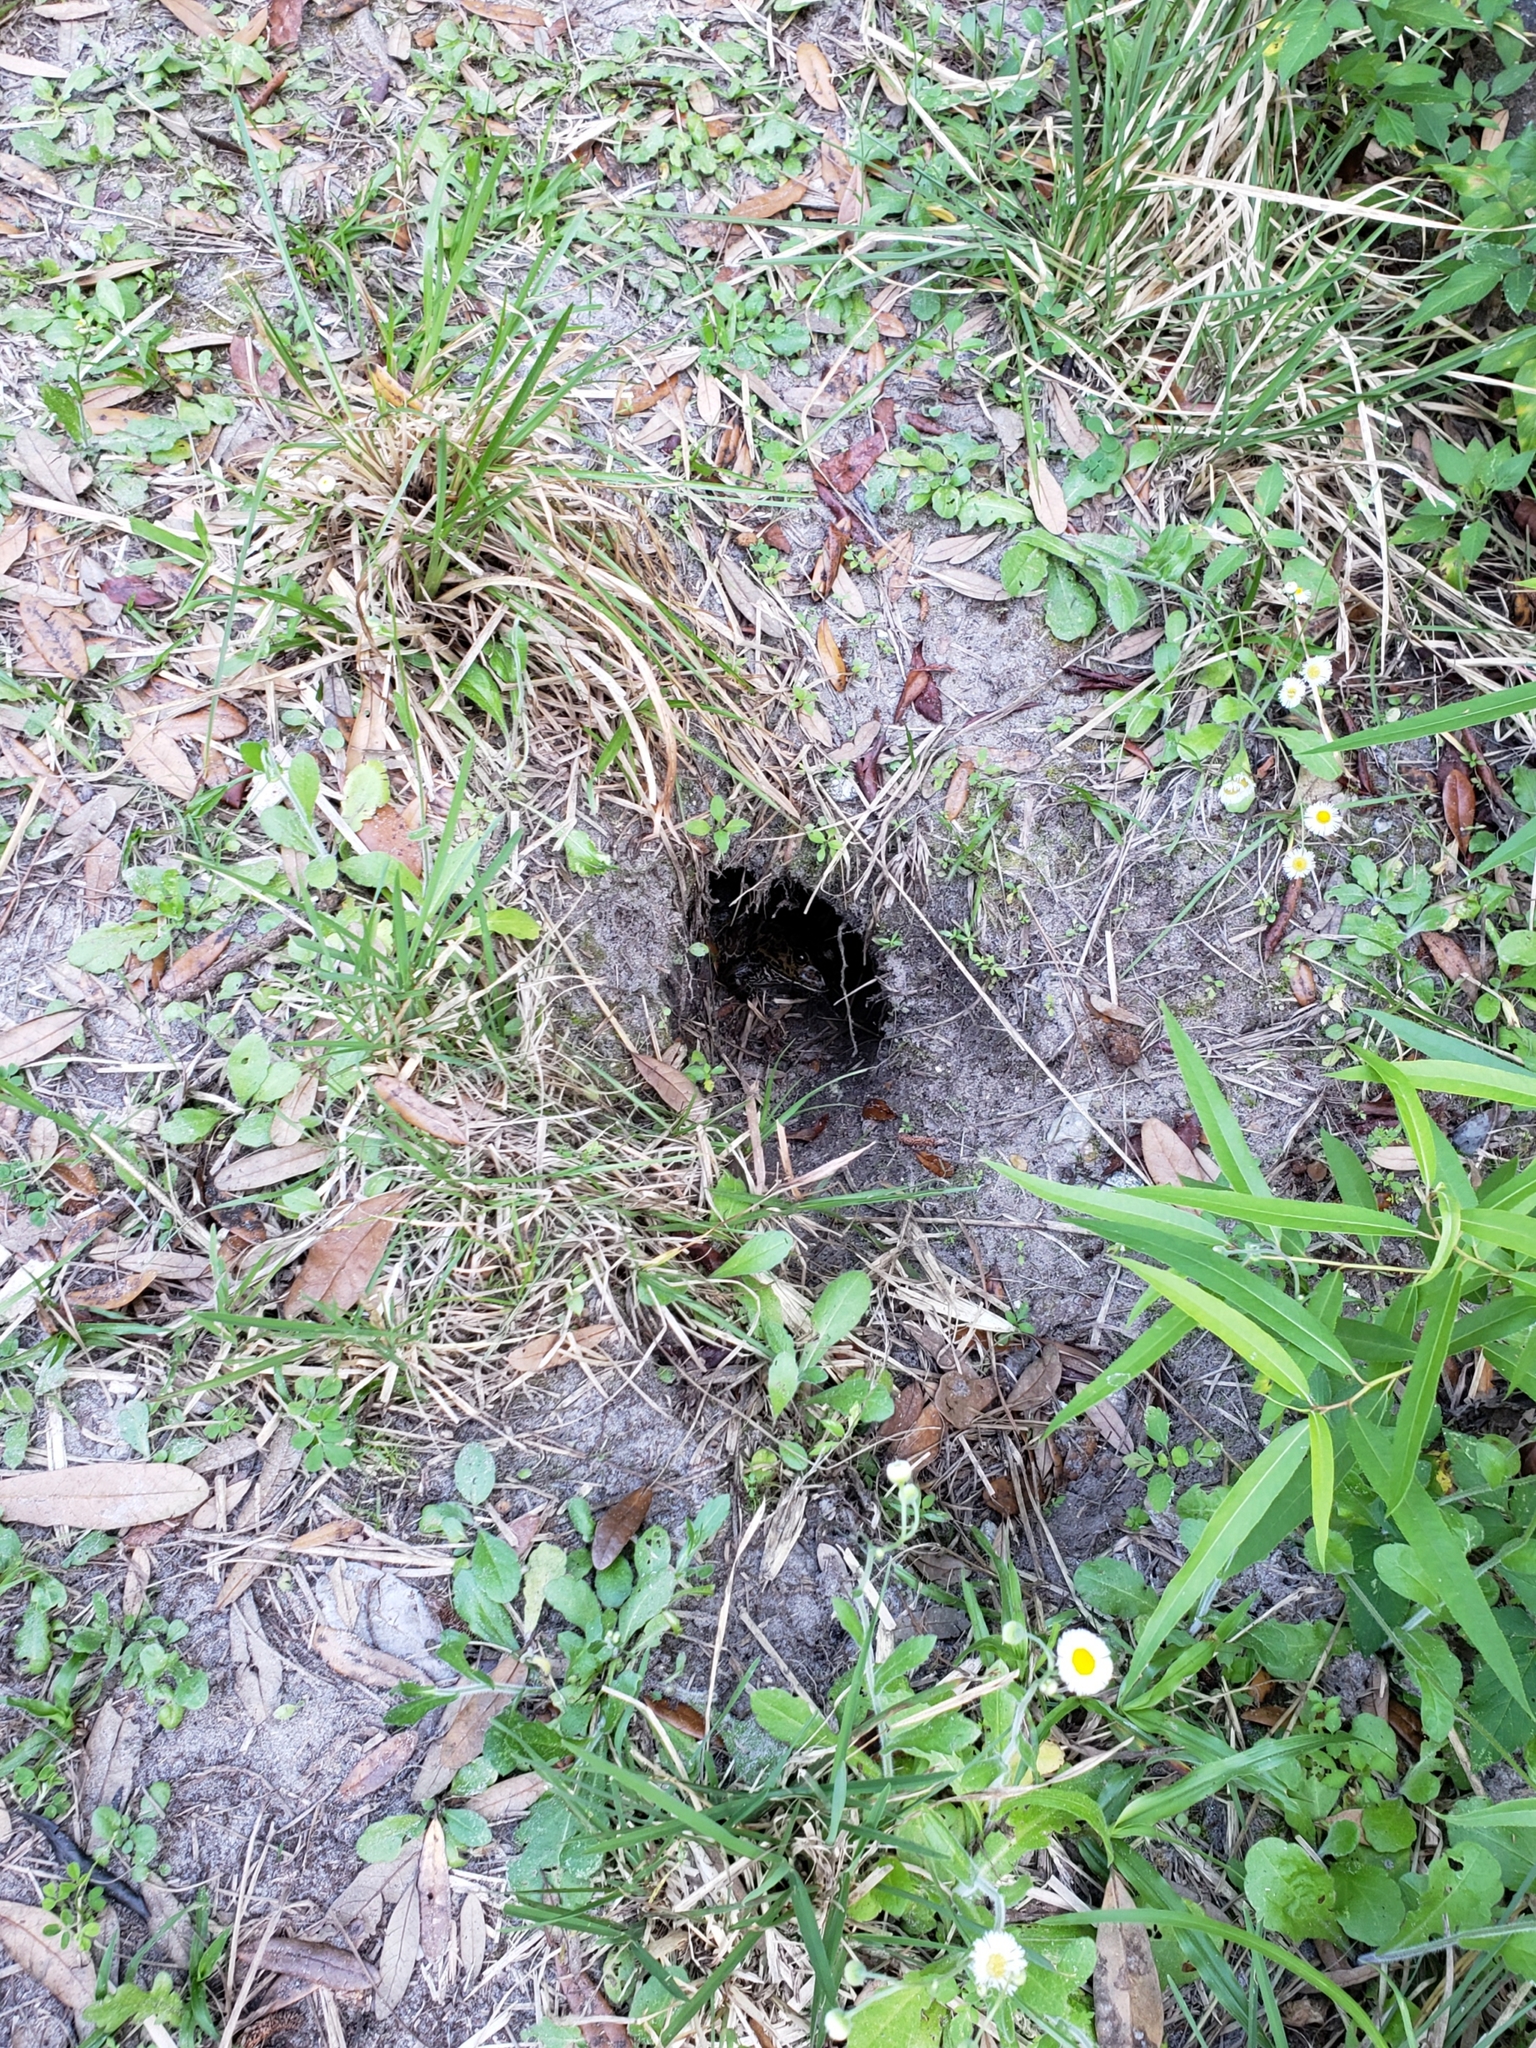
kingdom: Animalia
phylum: Chordata
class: Amphibia
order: Anura
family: Ranidae
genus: Lithobates
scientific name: Lithobates catesbeianus
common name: American bullfrog
